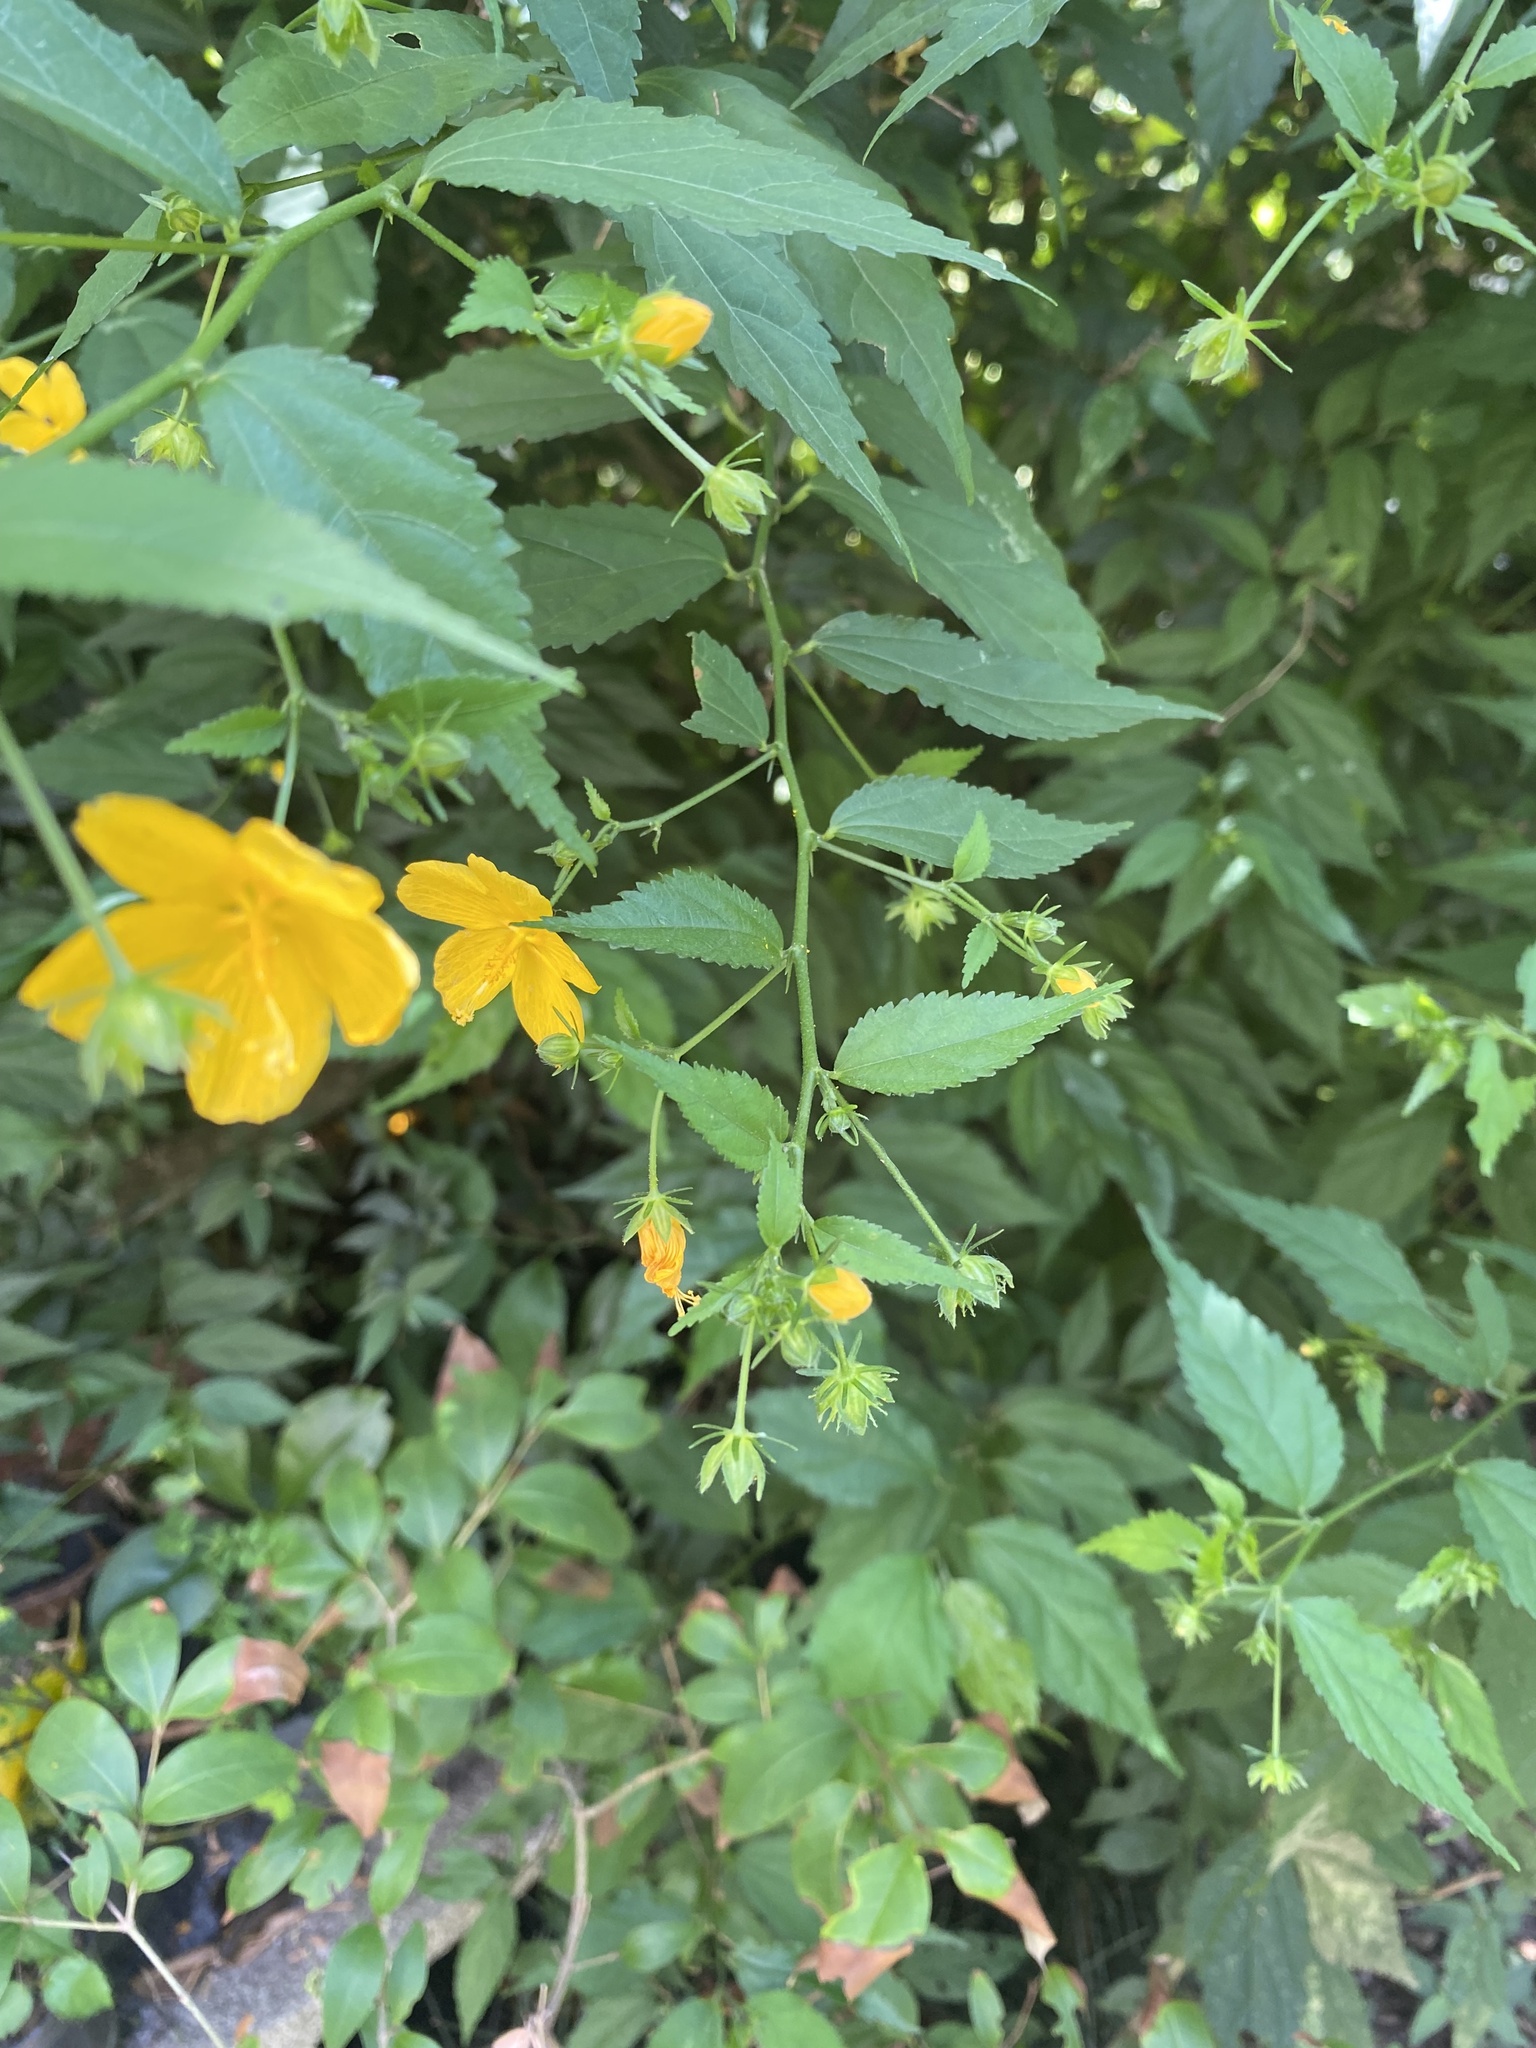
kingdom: Plantae
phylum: Tracheophyta
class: Magnoliopsida
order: Malvales
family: Malvaceae
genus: Pavonia
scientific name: Pavonia sepium
